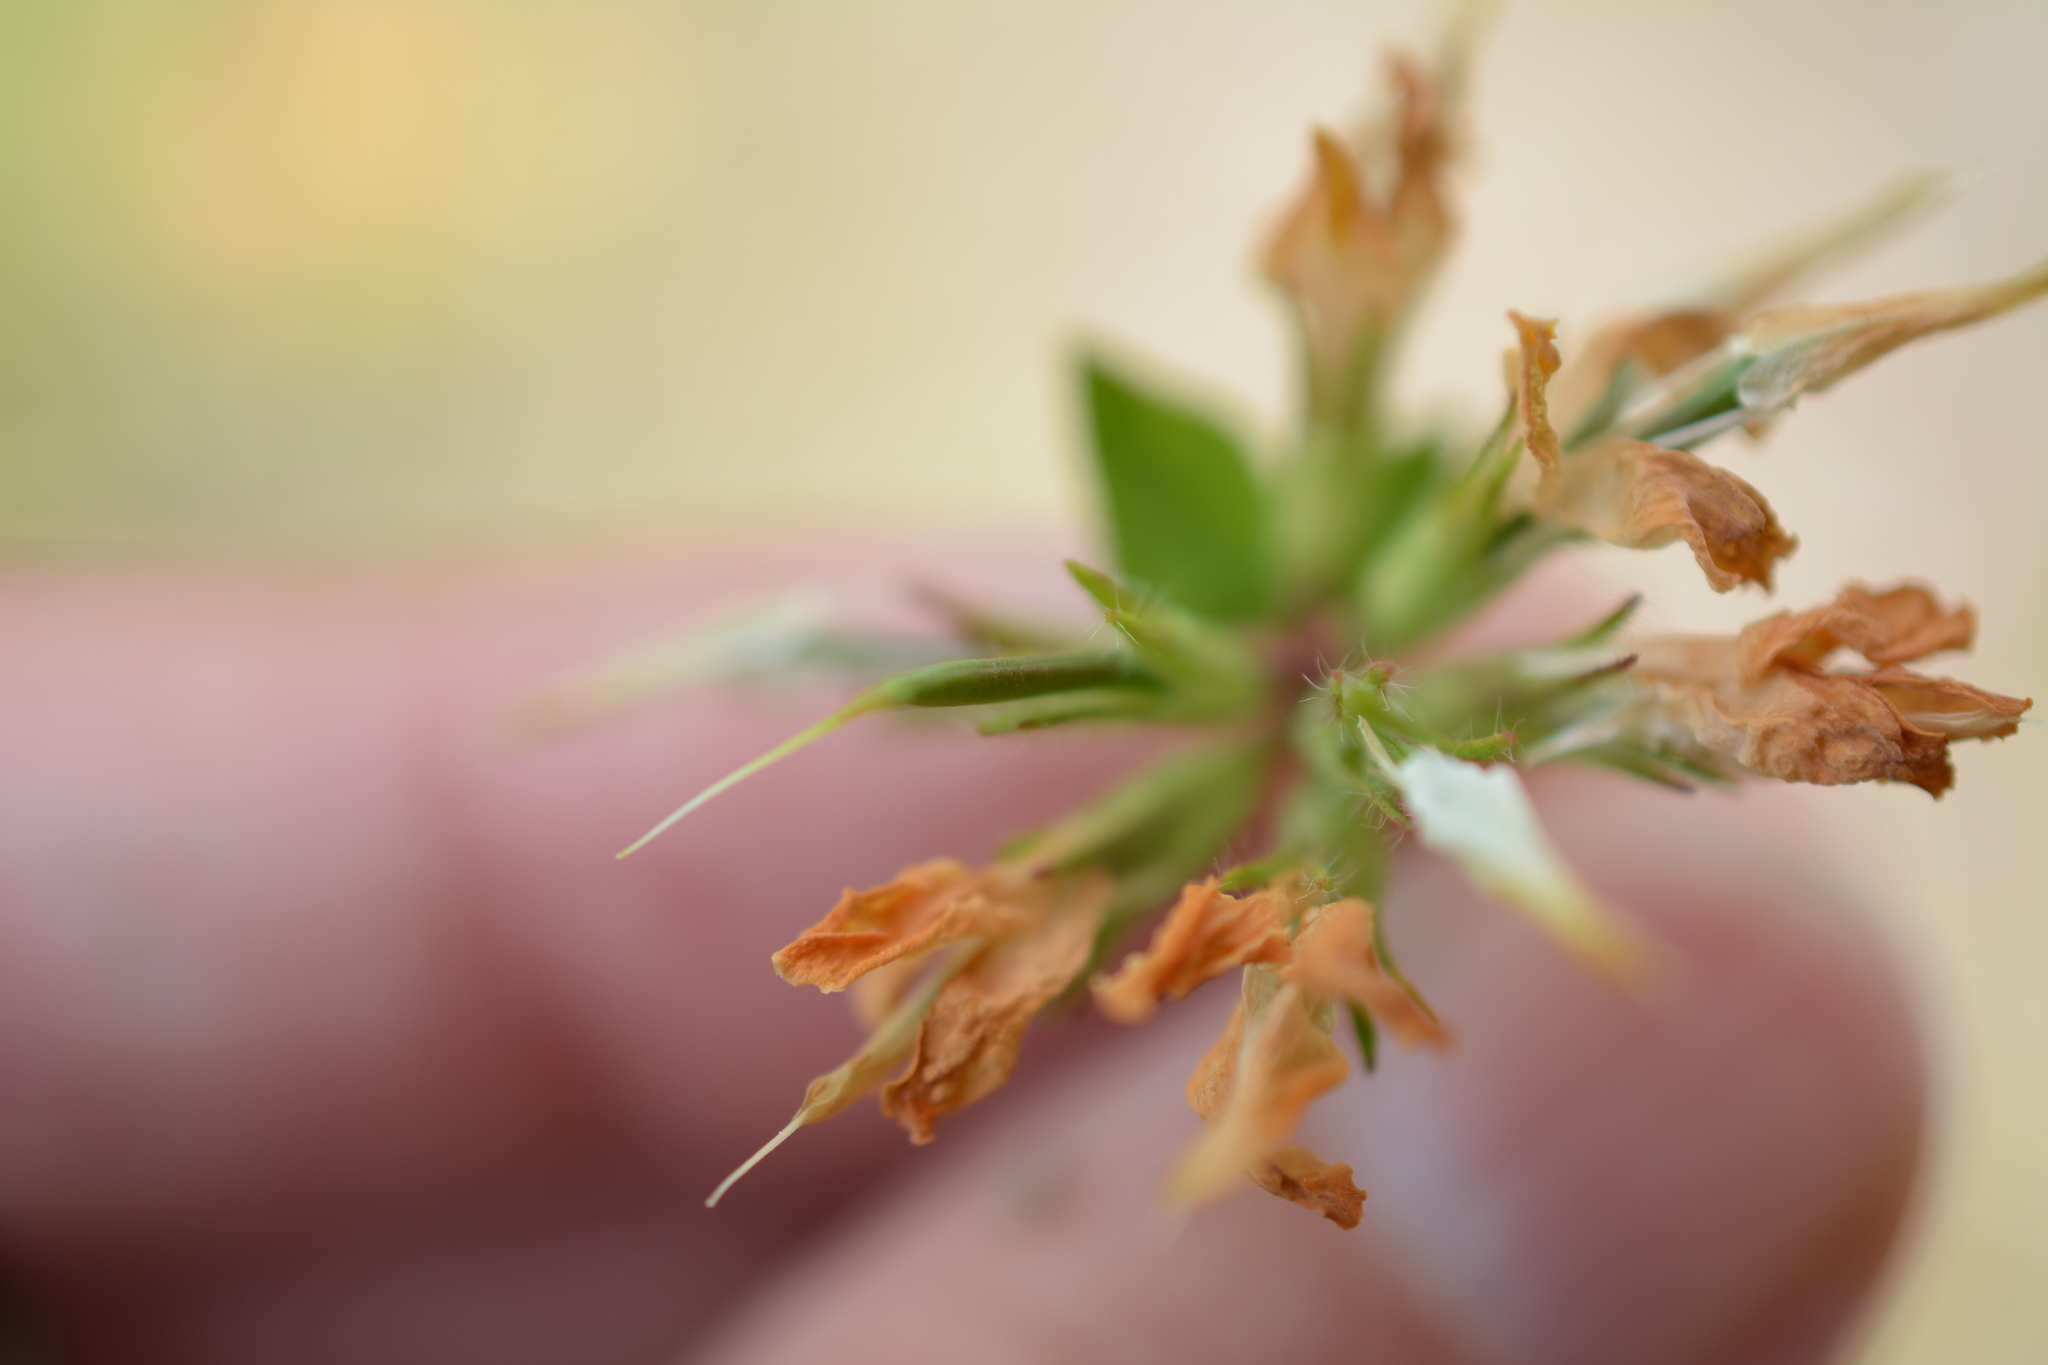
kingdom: Plantae
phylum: Tracheophyta
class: Magnoliopsida
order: Fabales
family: Fabaceae
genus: Lotus
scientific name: Lotus pedunculatus
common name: Greater birdsfoot-trefoil
